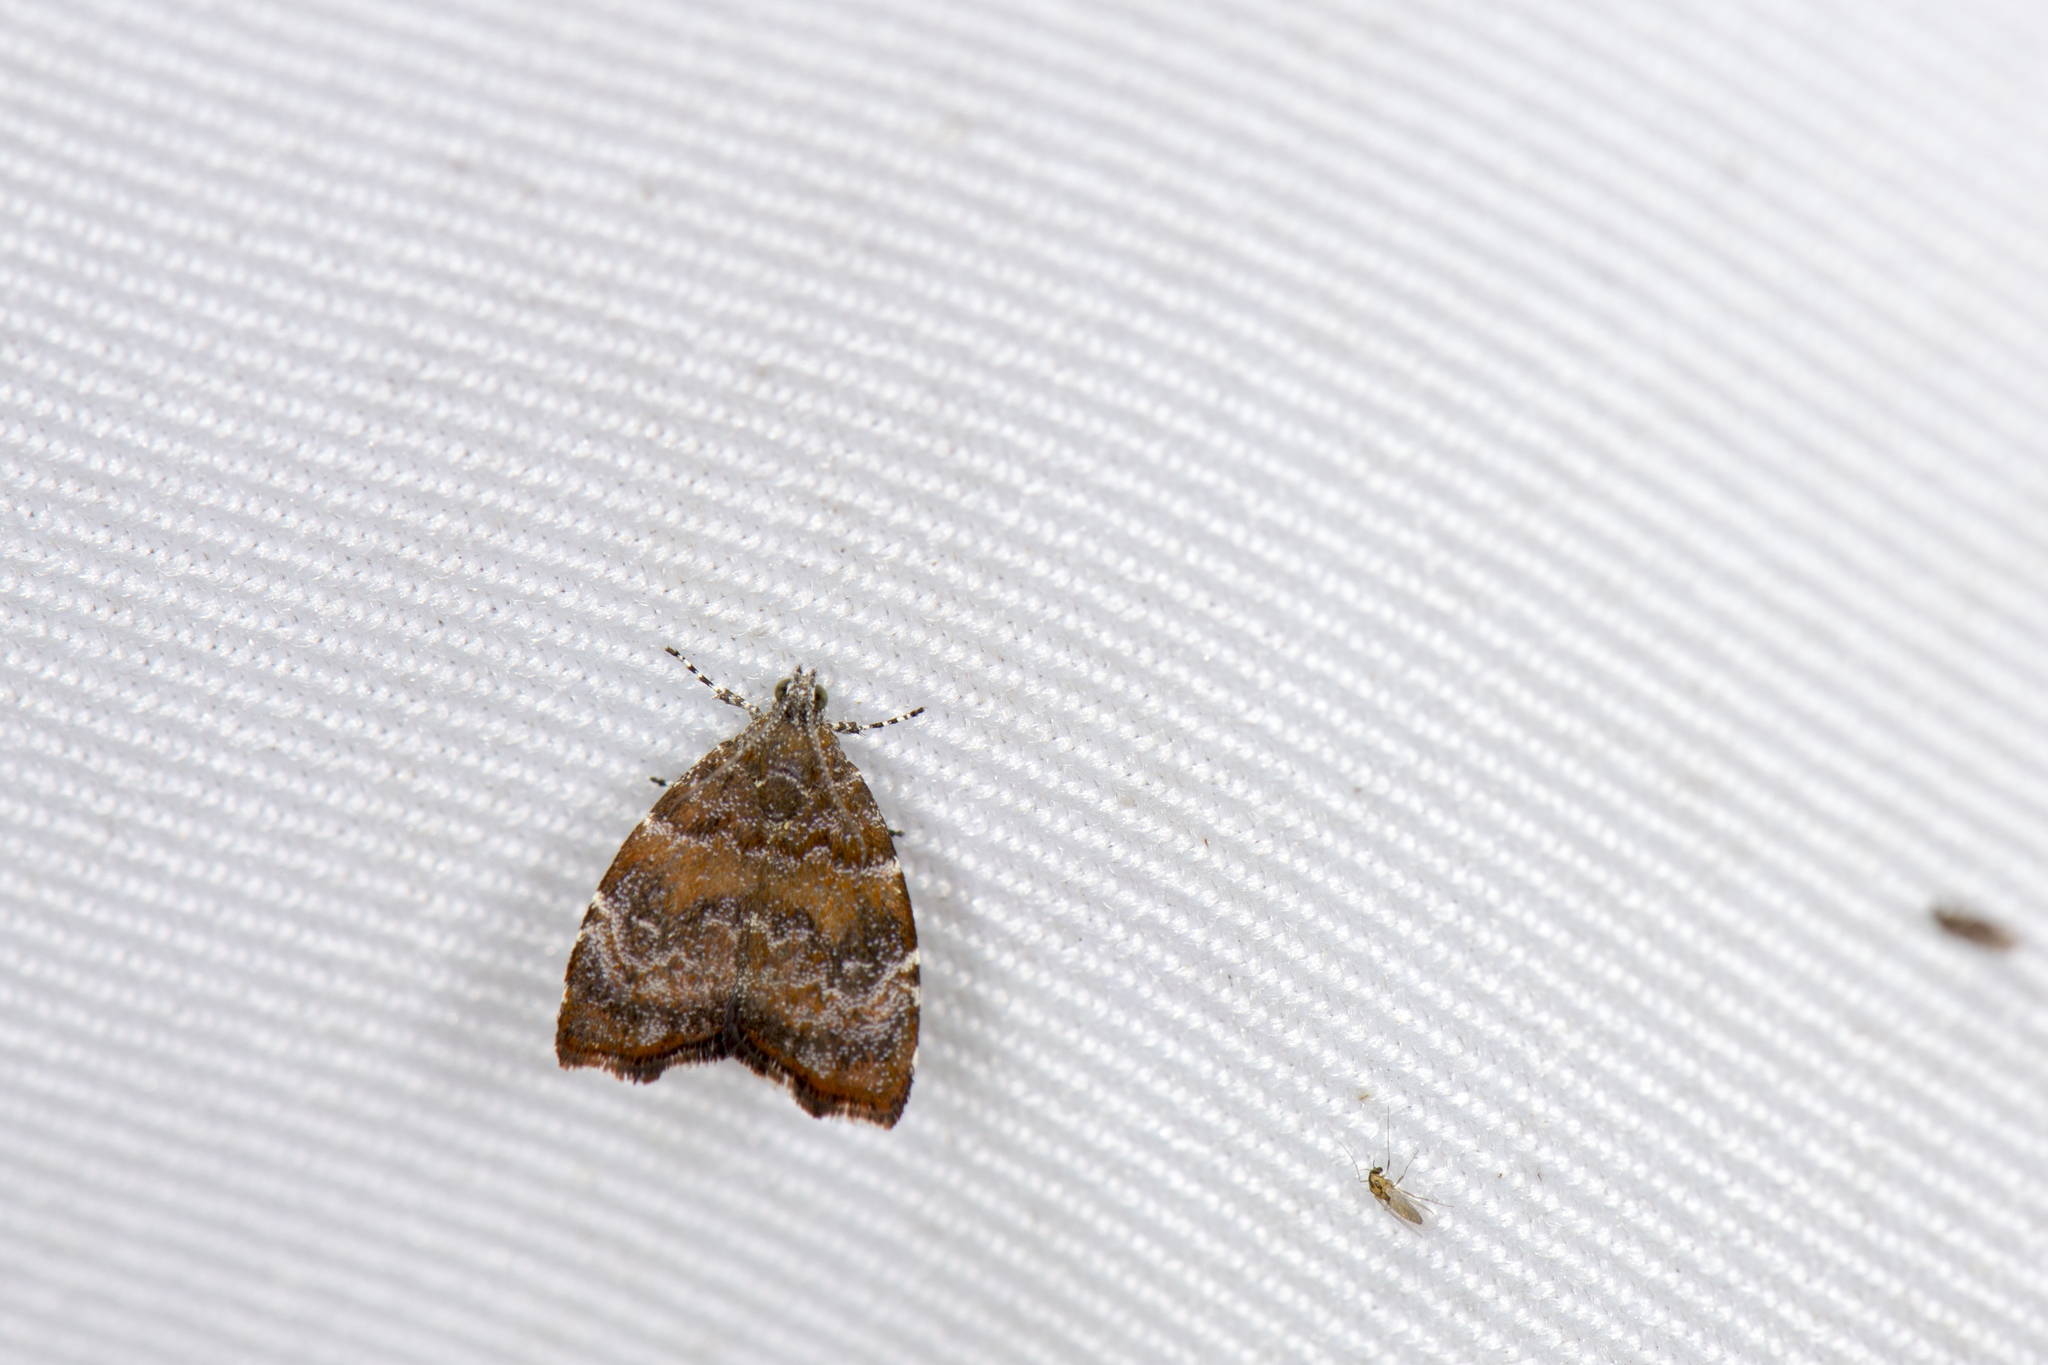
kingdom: Animalia
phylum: Arthropoda
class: Insecta
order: Lepidoptera
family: Choreutidae
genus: Anthophila
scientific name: Anthophila yakushimensis
